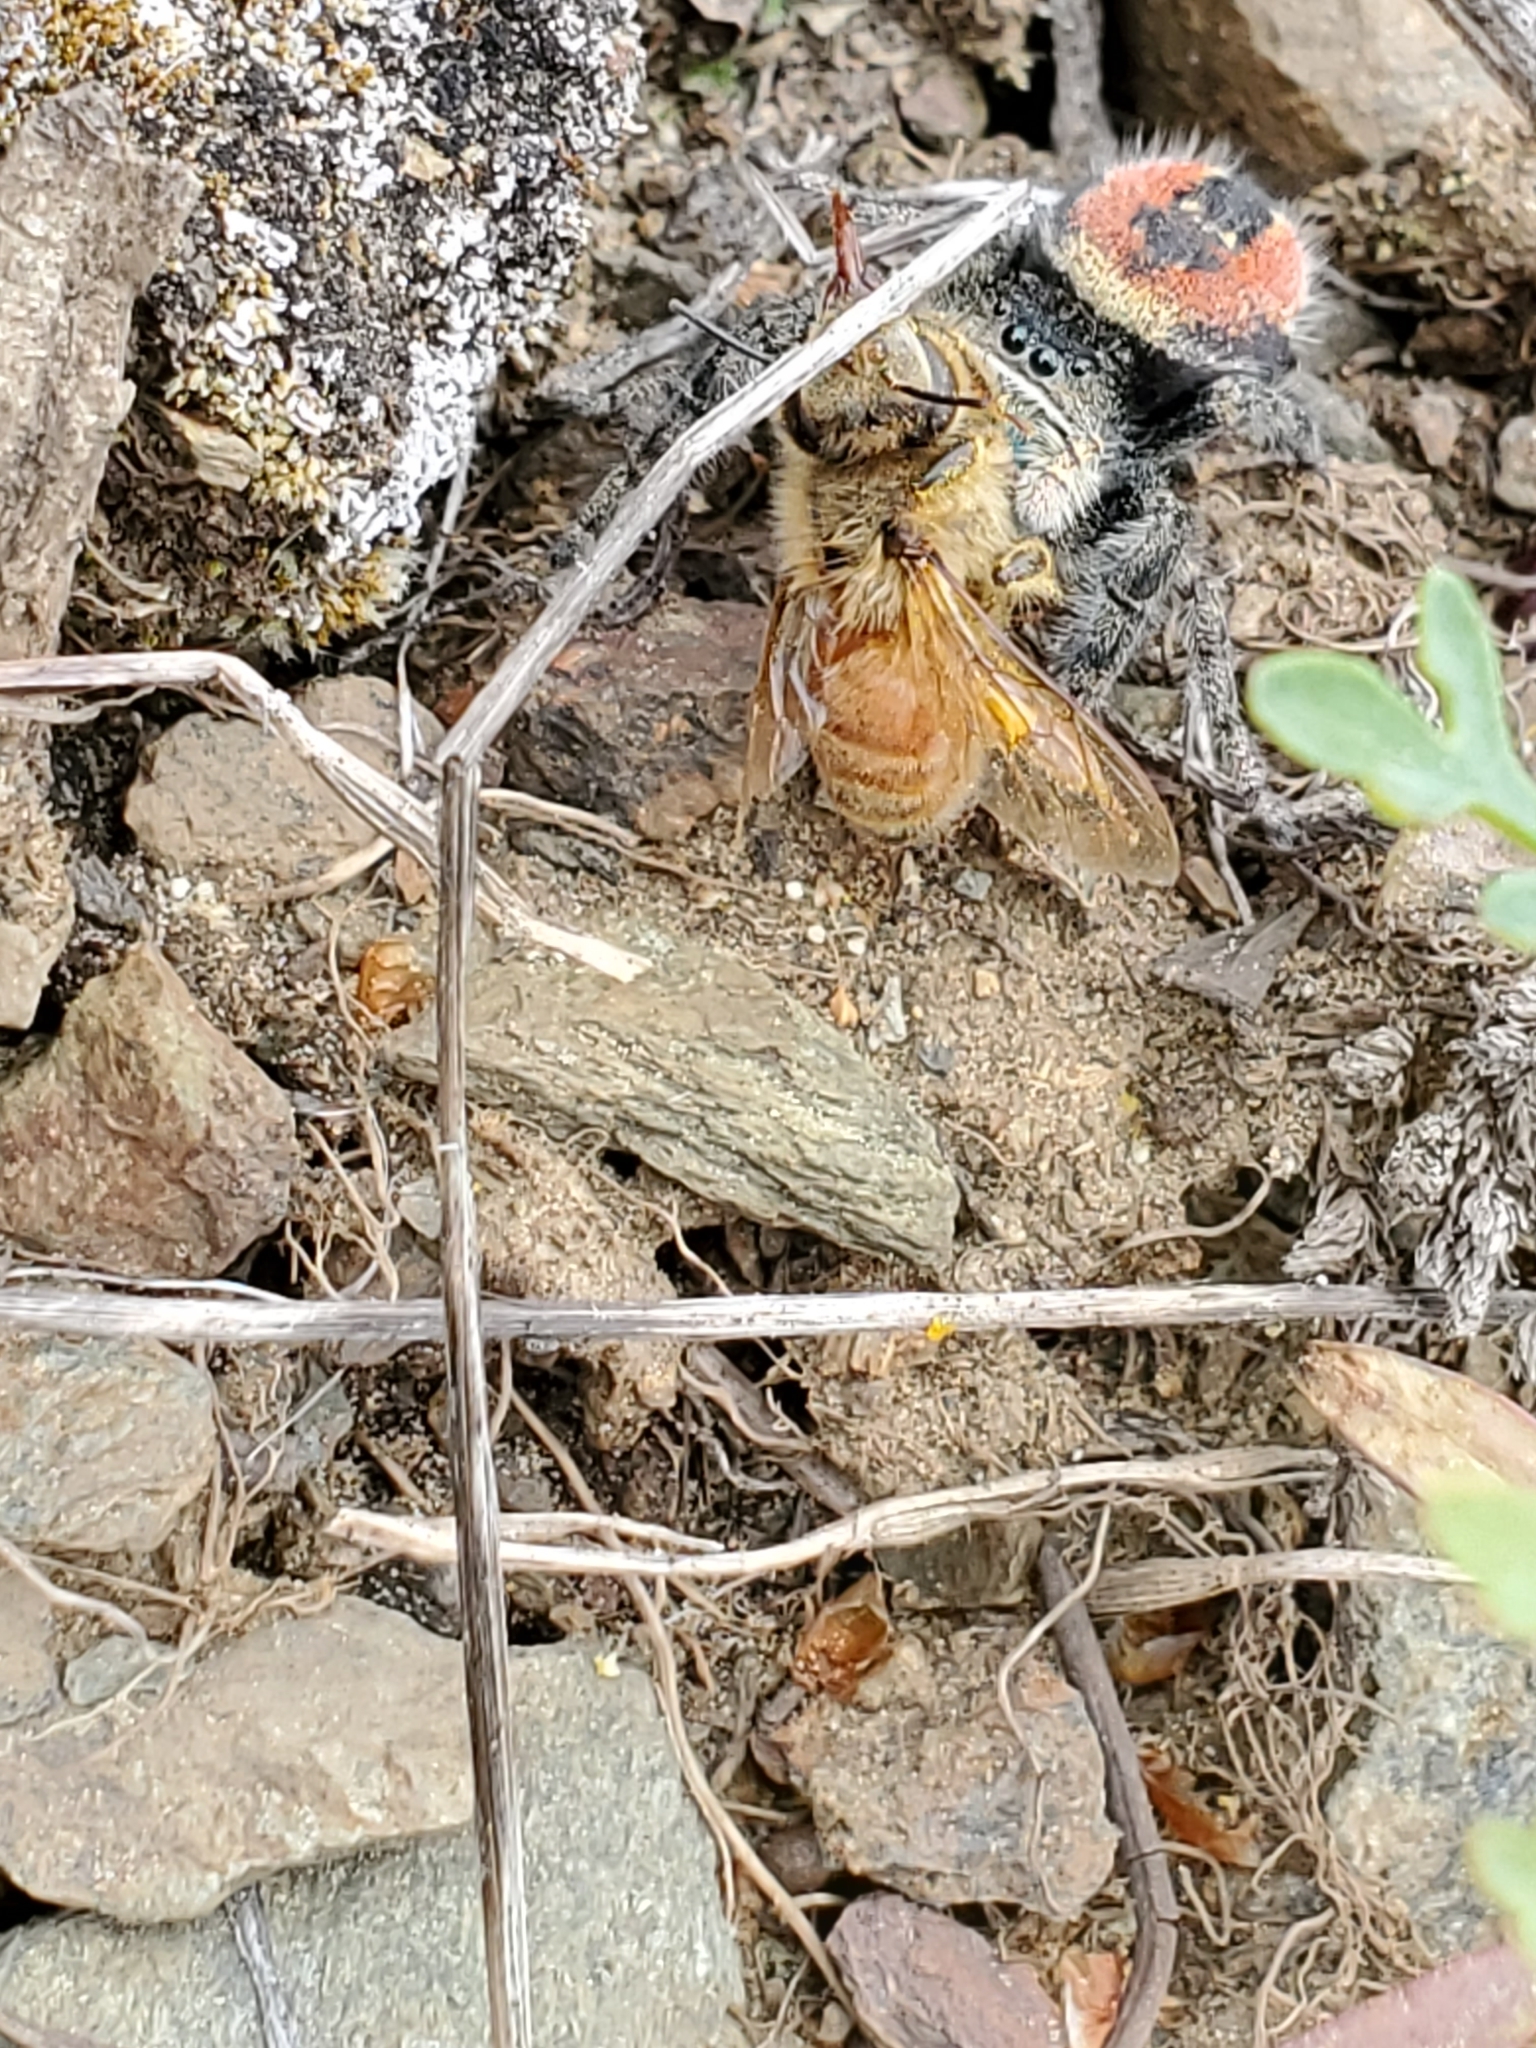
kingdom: Animalia
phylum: Arthropoda
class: Arachnida
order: Araneae
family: Salticidae
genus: Phidippus
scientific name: Phidippus johnsoni
